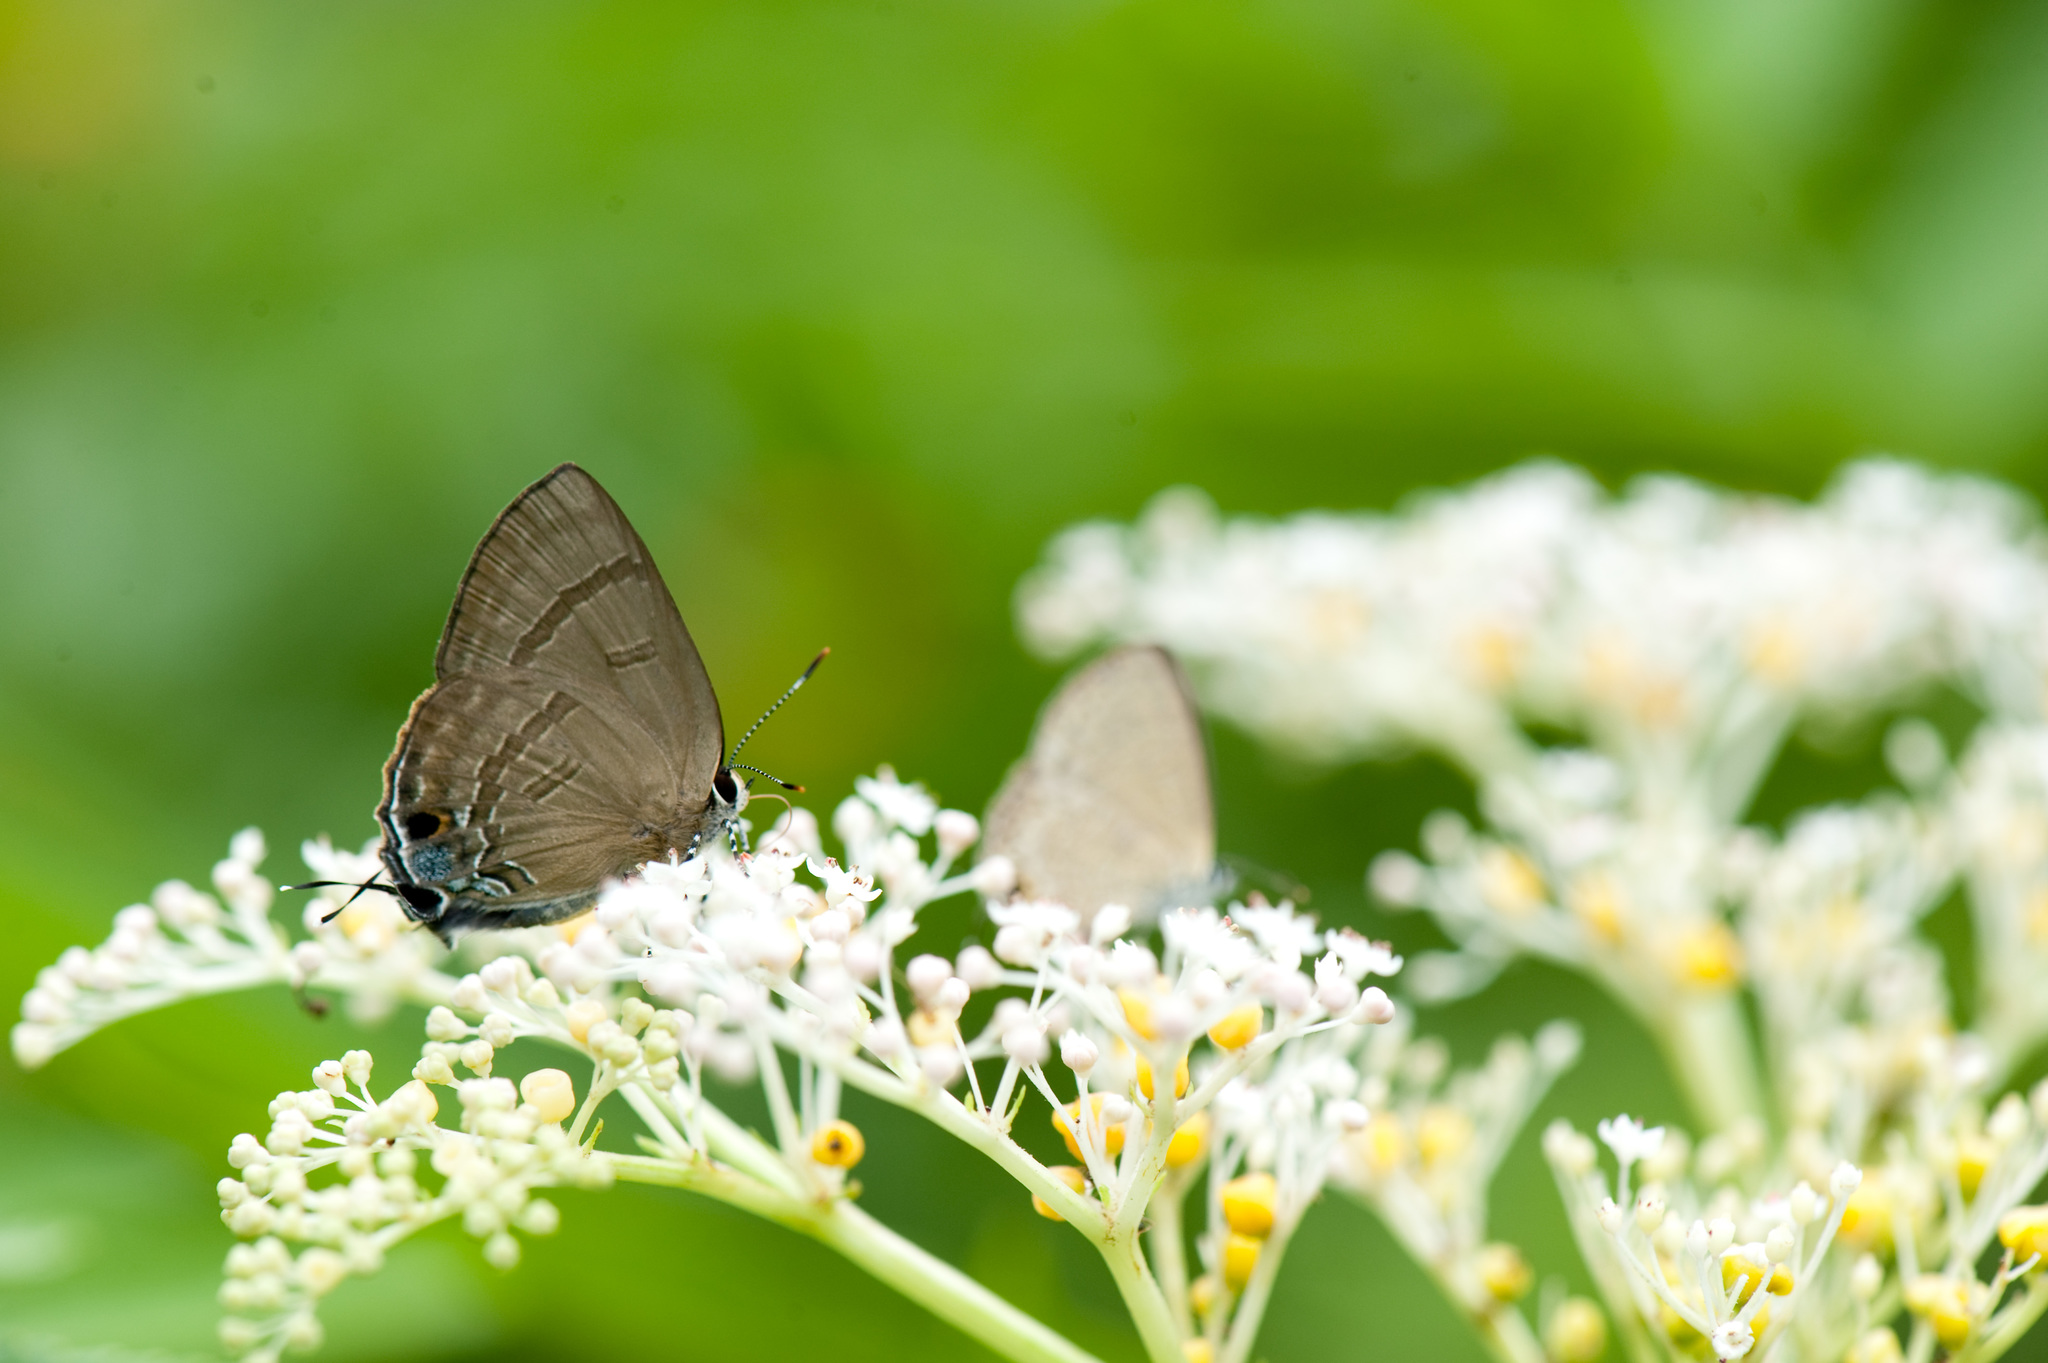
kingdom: Animalia
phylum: Arthropoda
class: Insecta
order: Lepidoptera
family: Lycaenidae
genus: Rapala
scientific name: Rapala varuna
